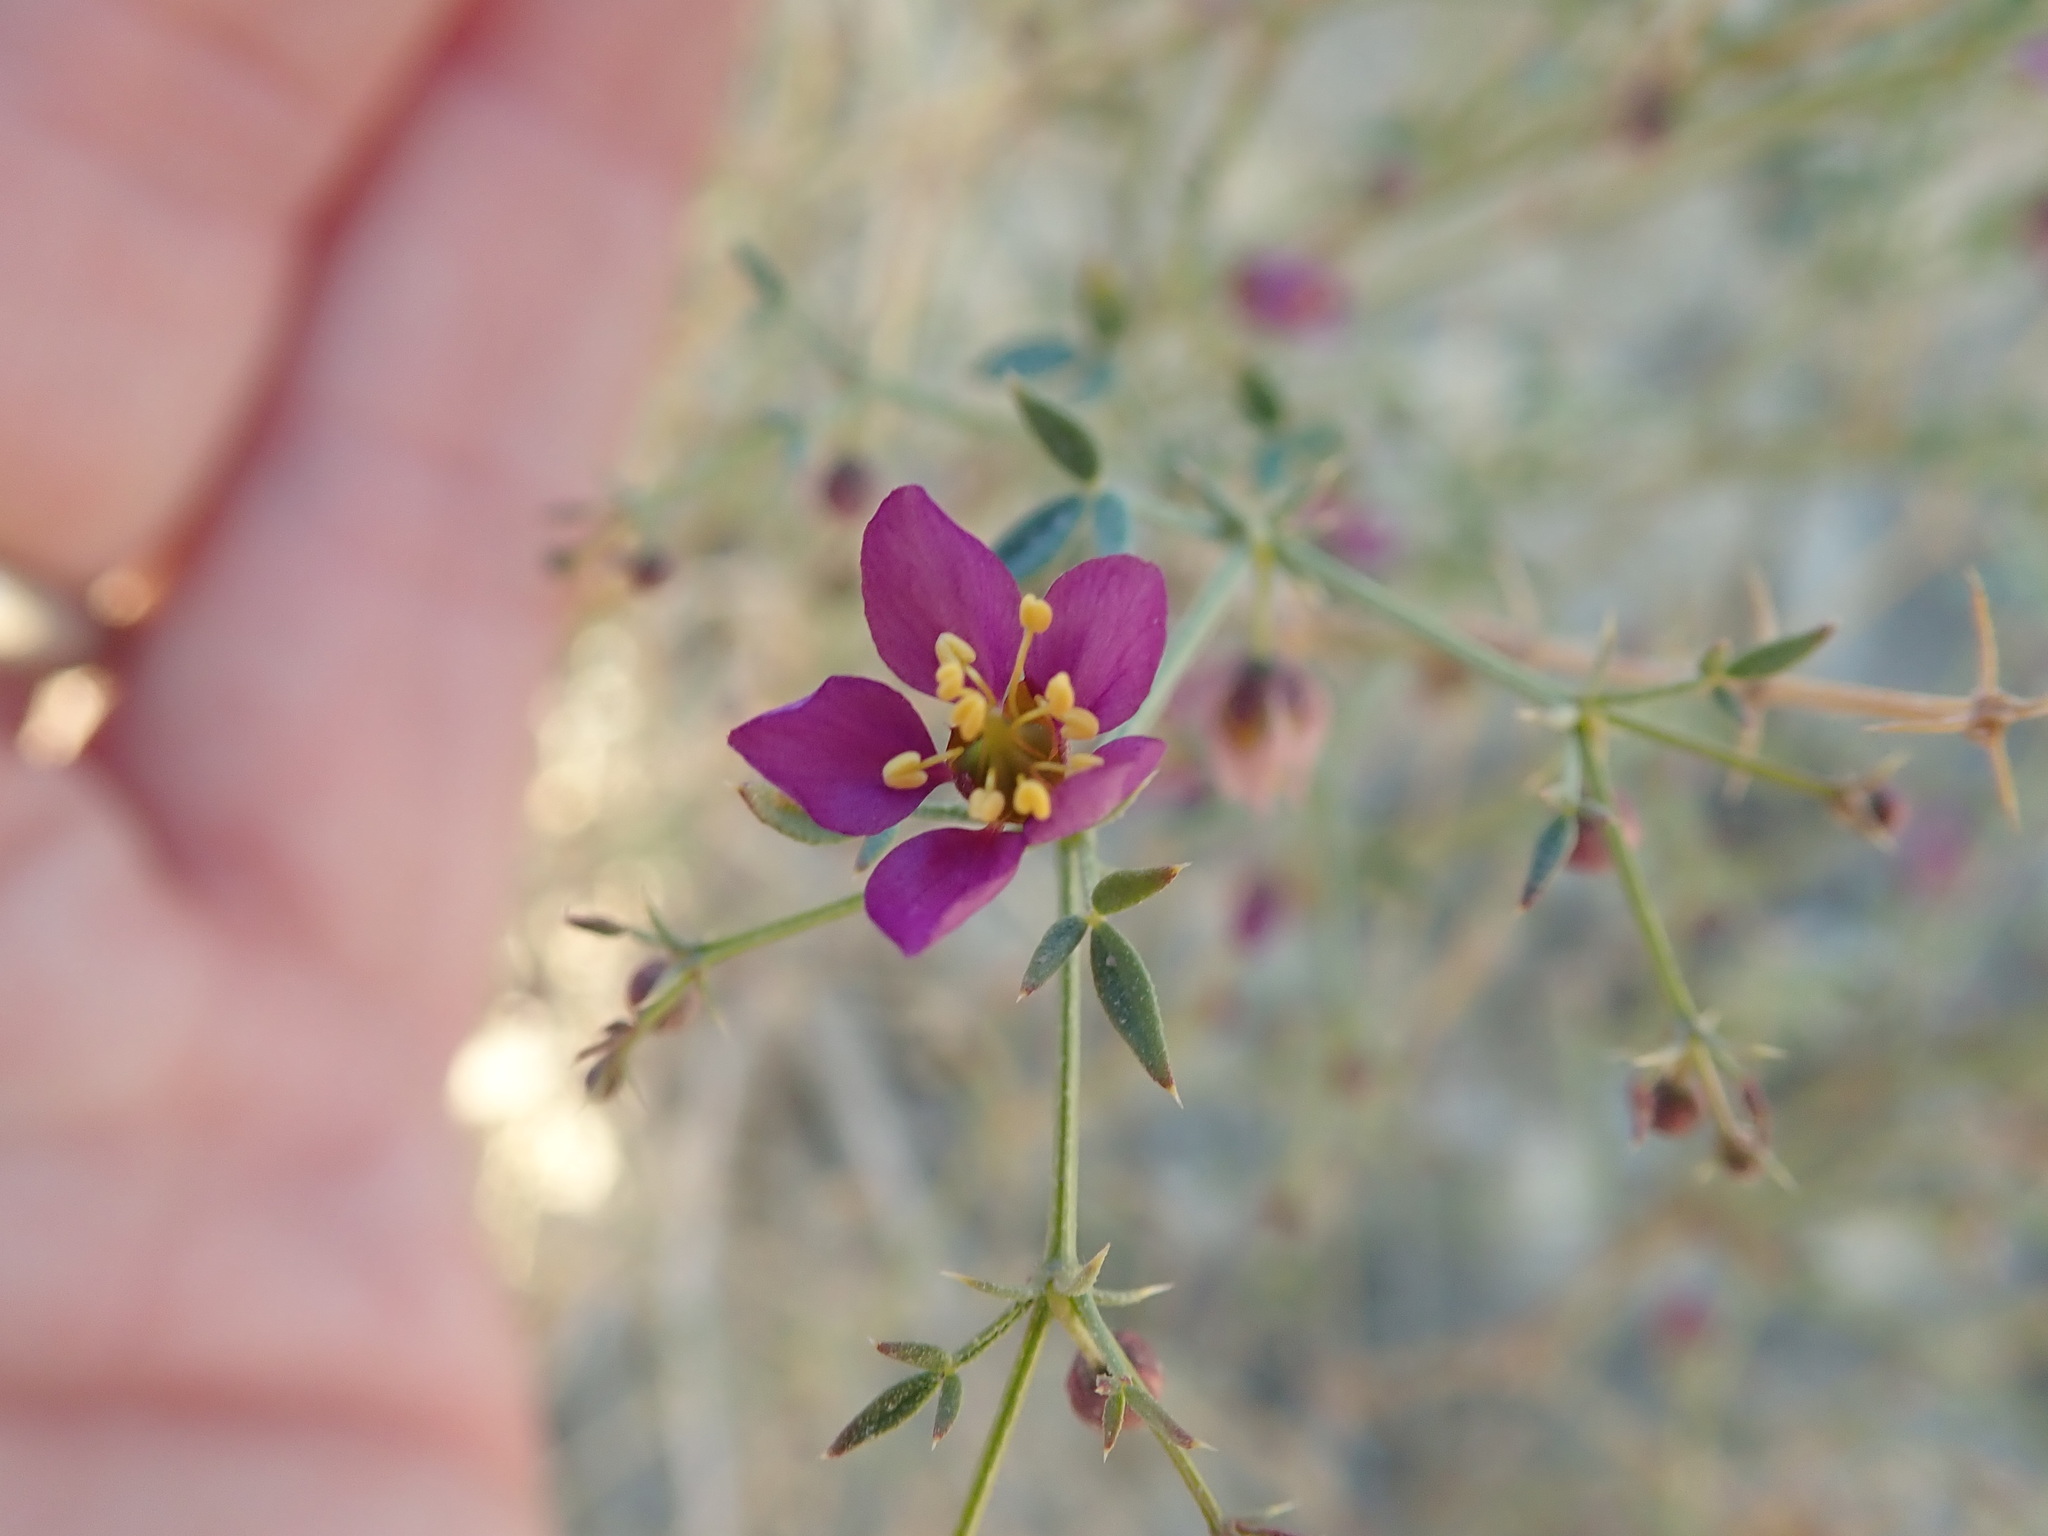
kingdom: Plantae
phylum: Tracheophyta
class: Magnoliopsida
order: Zygophyllales
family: Zygophyllaceae
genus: Fagonia
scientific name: Fagonia laevis
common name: California fagonbush
